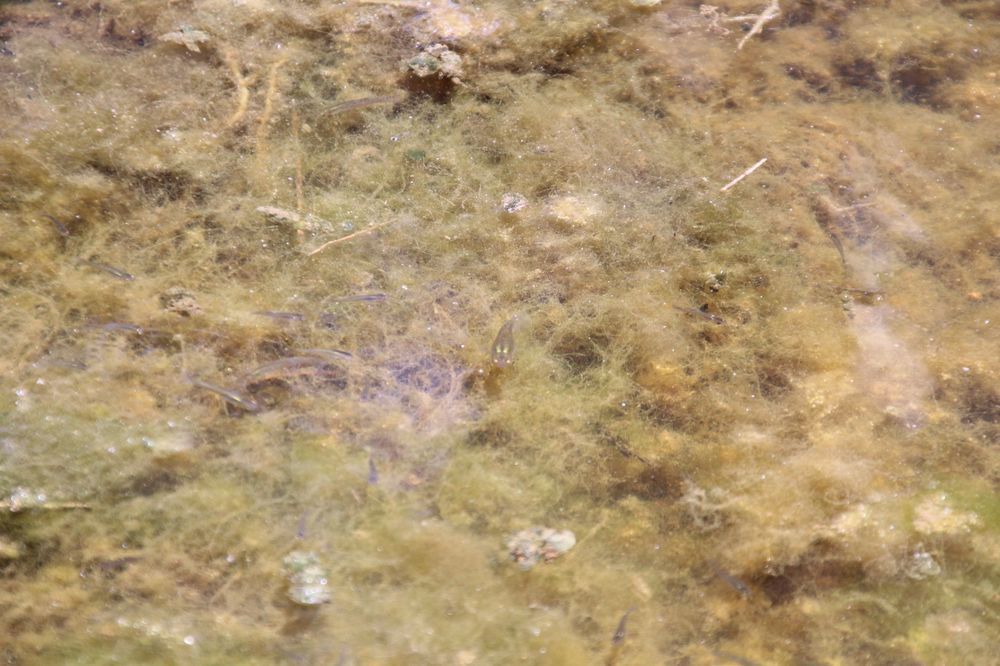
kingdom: Animalia
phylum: Chordata
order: Cyprinodontiformes
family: Poeciliidae
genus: Gambusia
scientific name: Gambusia holbrooki
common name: Eastern mosquitofish
